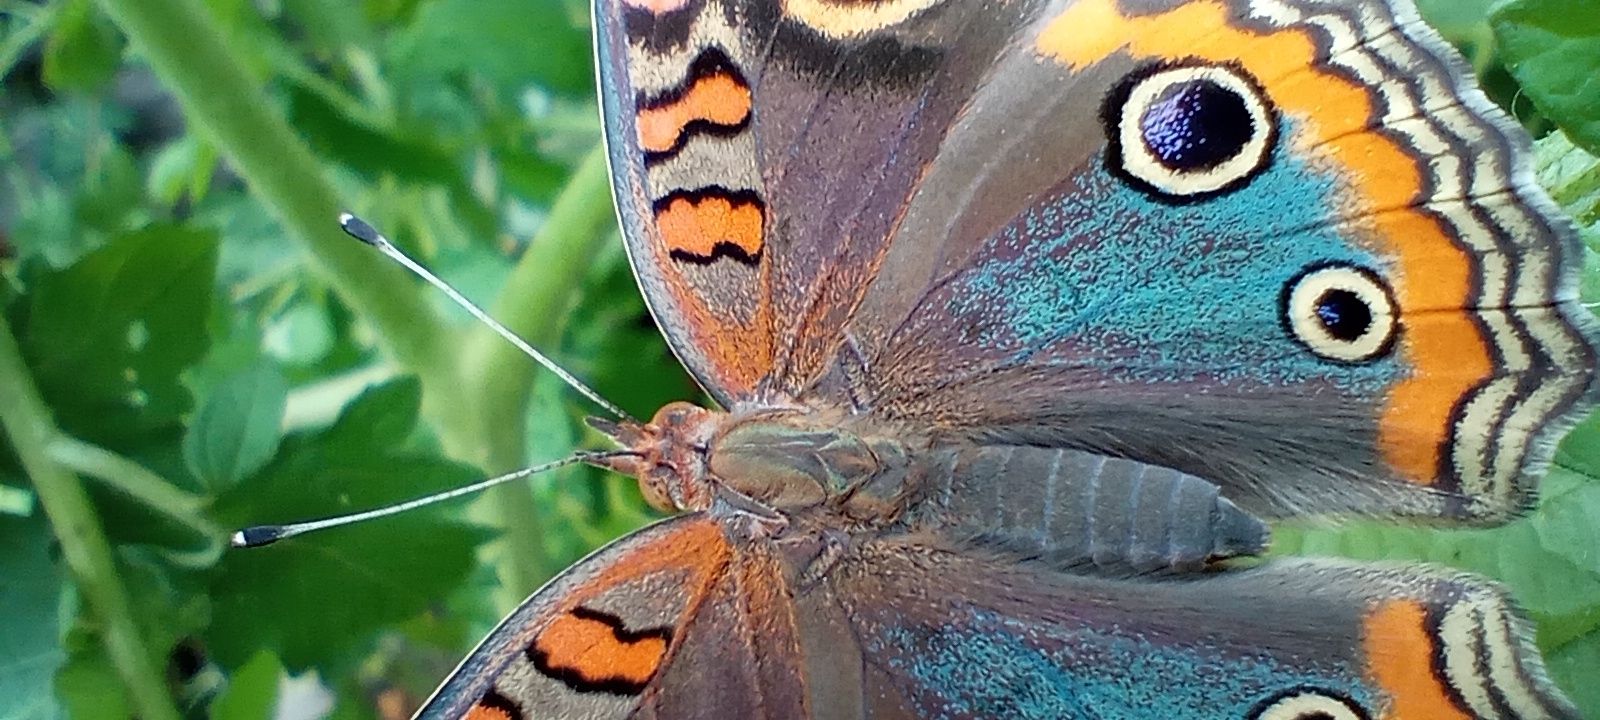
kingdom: Animalia
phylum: Arthropoda
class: Insecta
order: Lepidoptera
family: Nymphalidae
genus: Junonia
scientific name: Junonia lavinia
